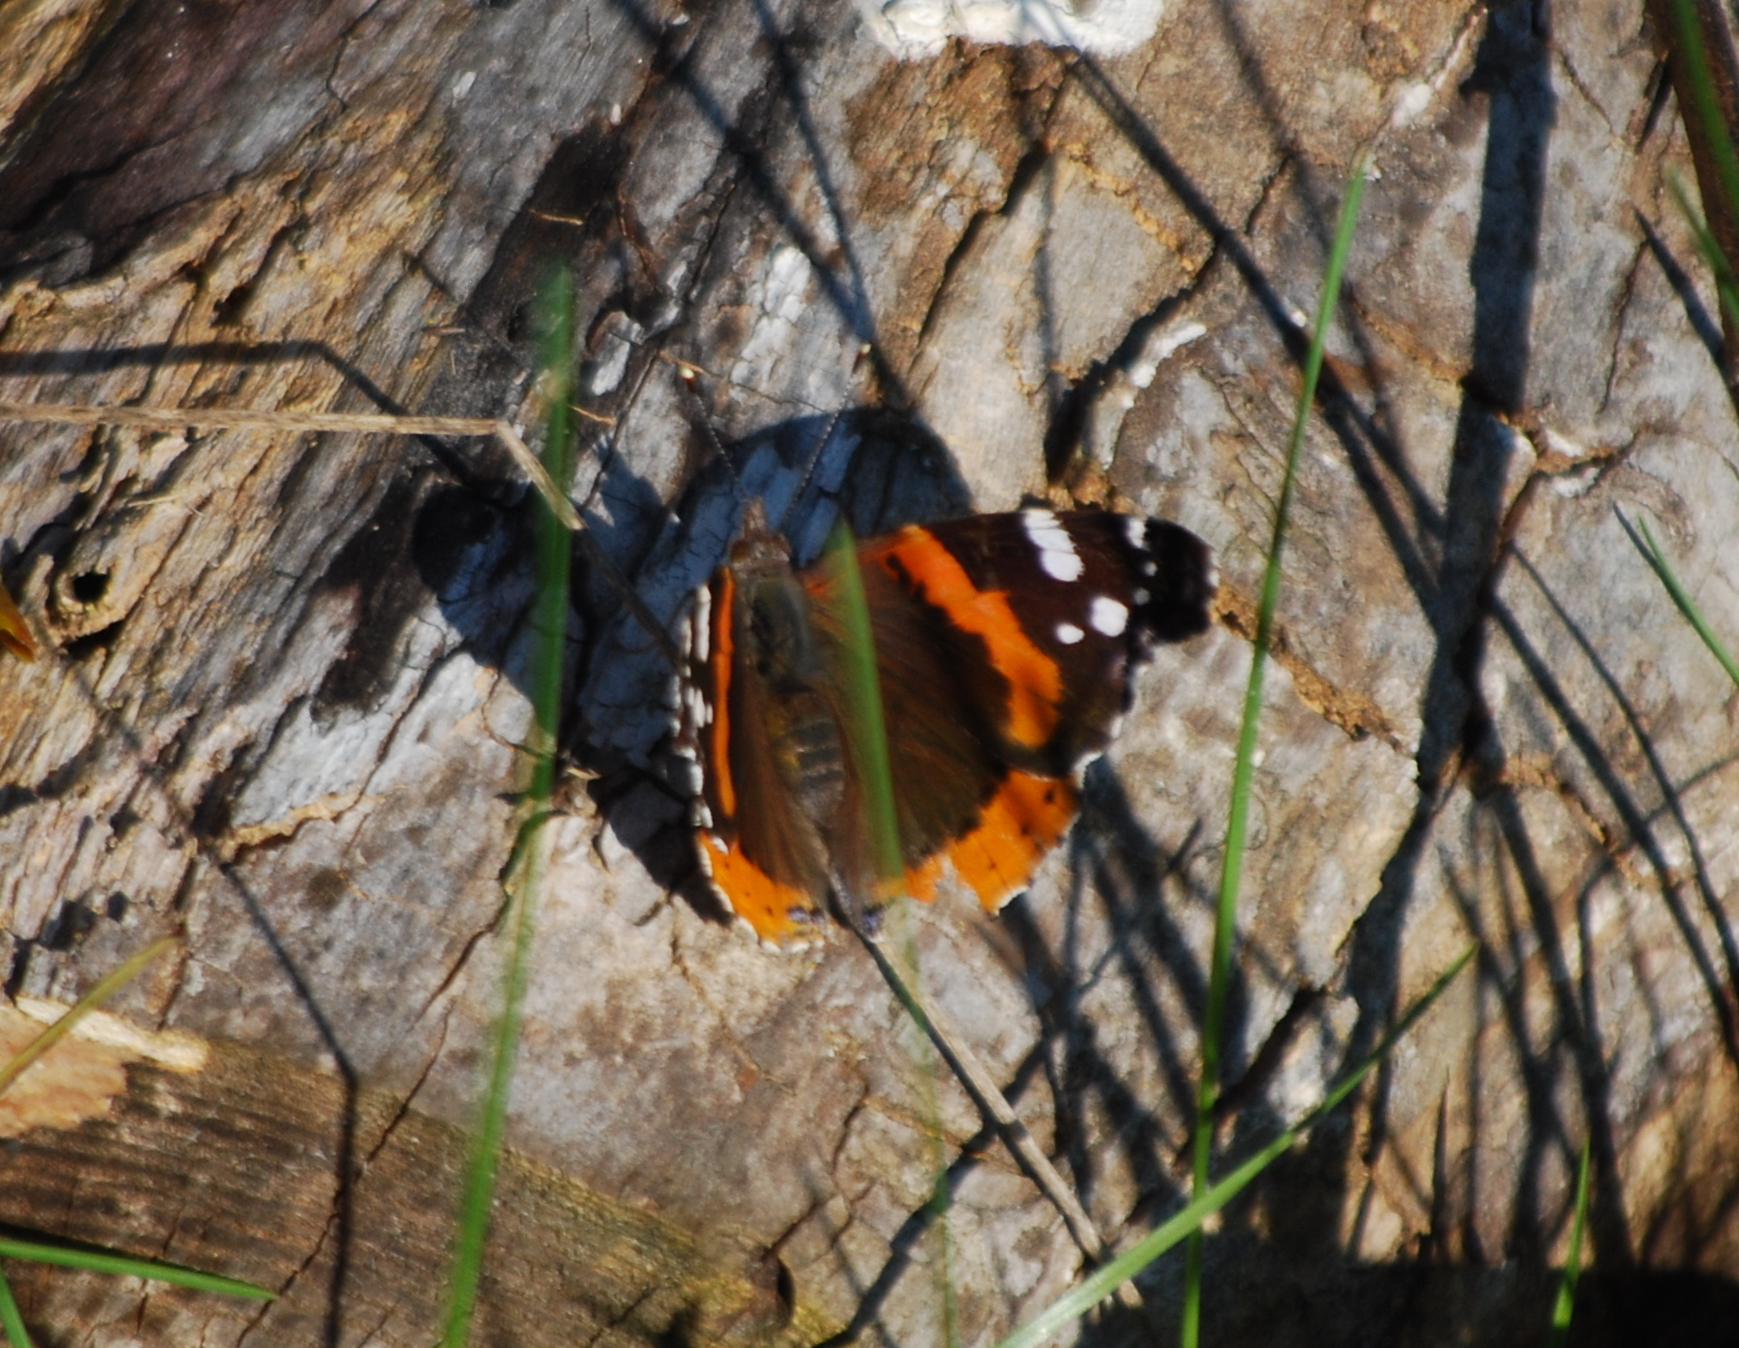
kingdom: Animalia
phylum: Arthropoda
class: Insecta
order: Lepidoptera
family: Nymphalidae
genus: Vanessa
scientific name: Vanessa atalanta
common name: Red admiral
